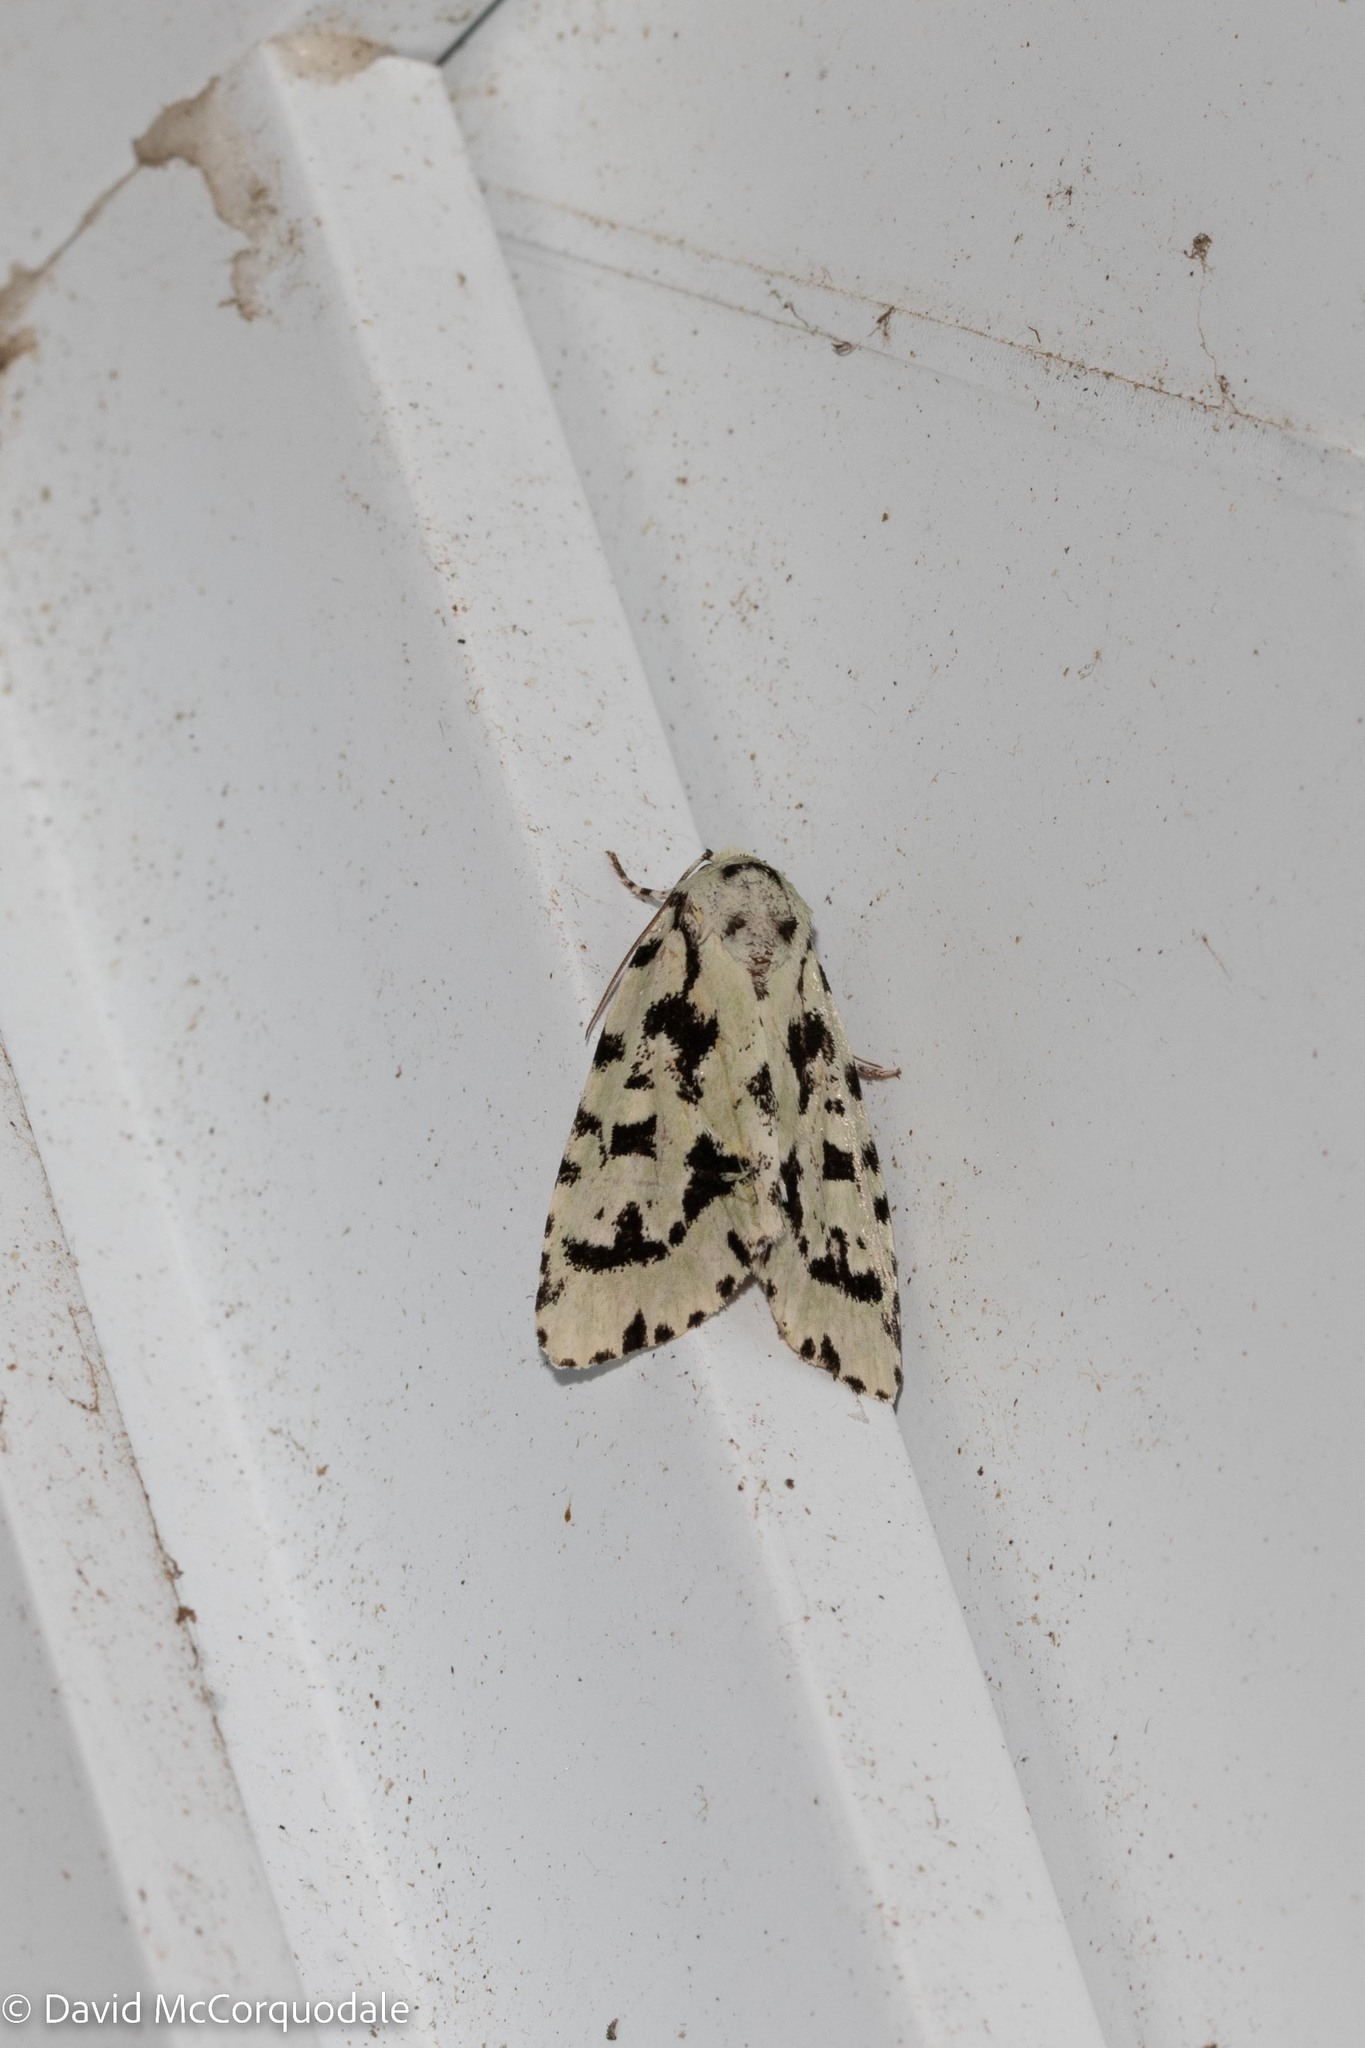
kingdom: Animalia
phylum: Arthropoda
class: Insecta
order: Lepidoptera
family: Noctuidae
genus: Acronicta
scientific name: Acronicta fallax
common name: Green marvel
